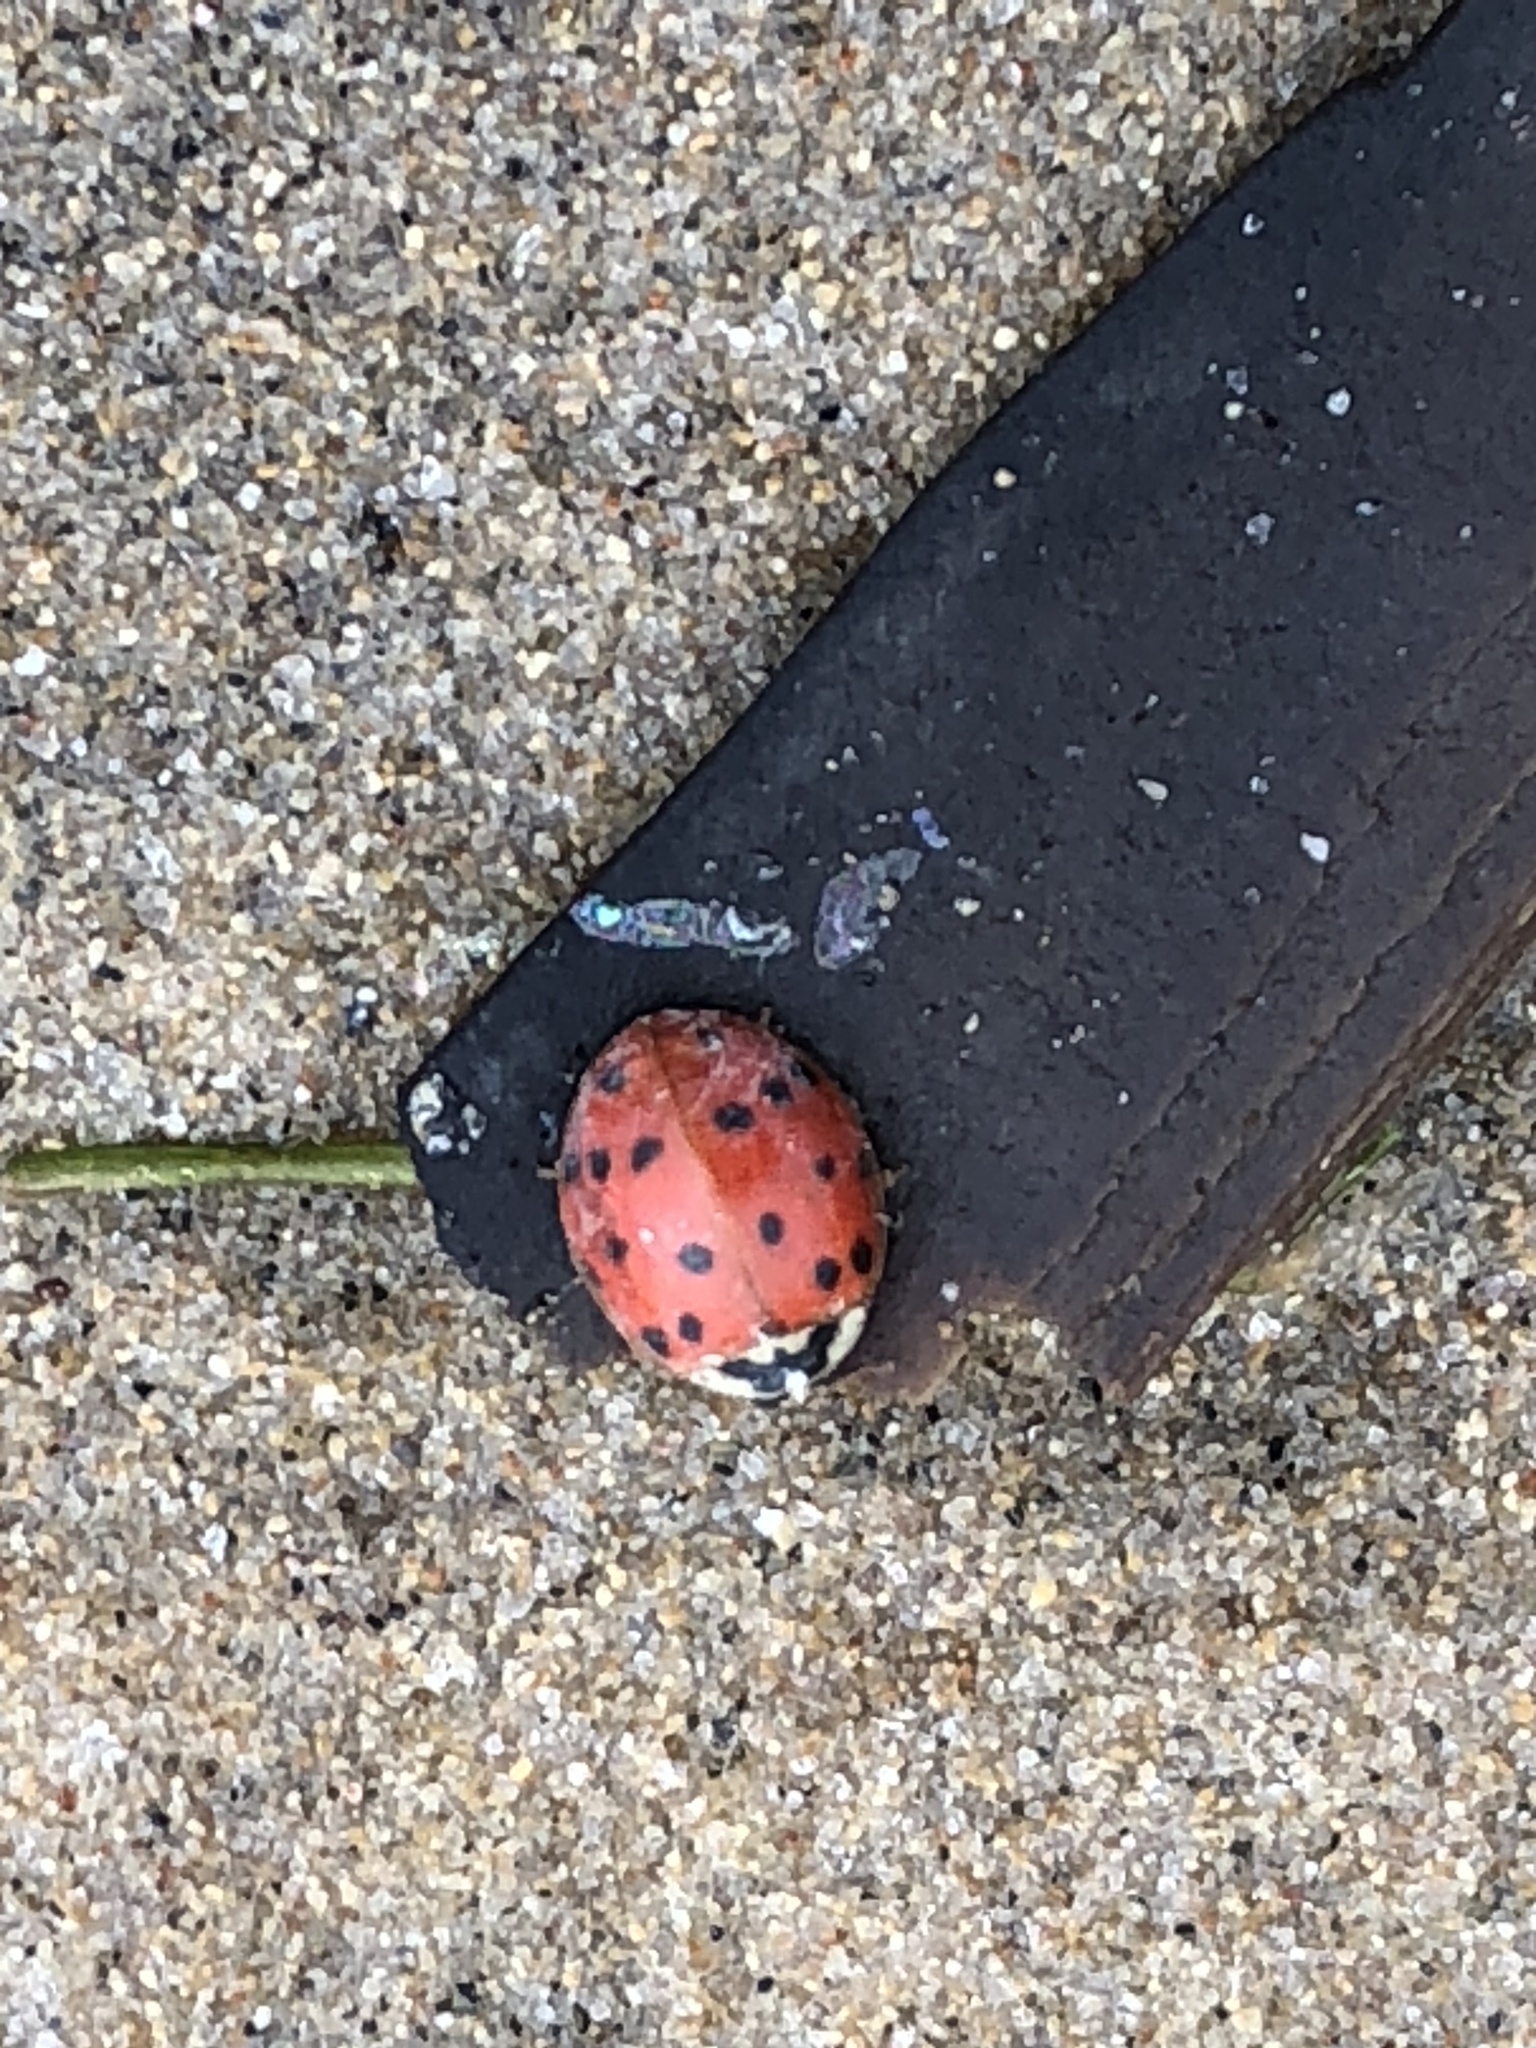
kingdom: Animalia
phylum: Arthropoda
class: Insecta
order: Coleoptera
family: Coccinellidae
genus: Harmonia
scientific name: Harmonia axyridis
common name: Harlequin ladybird
